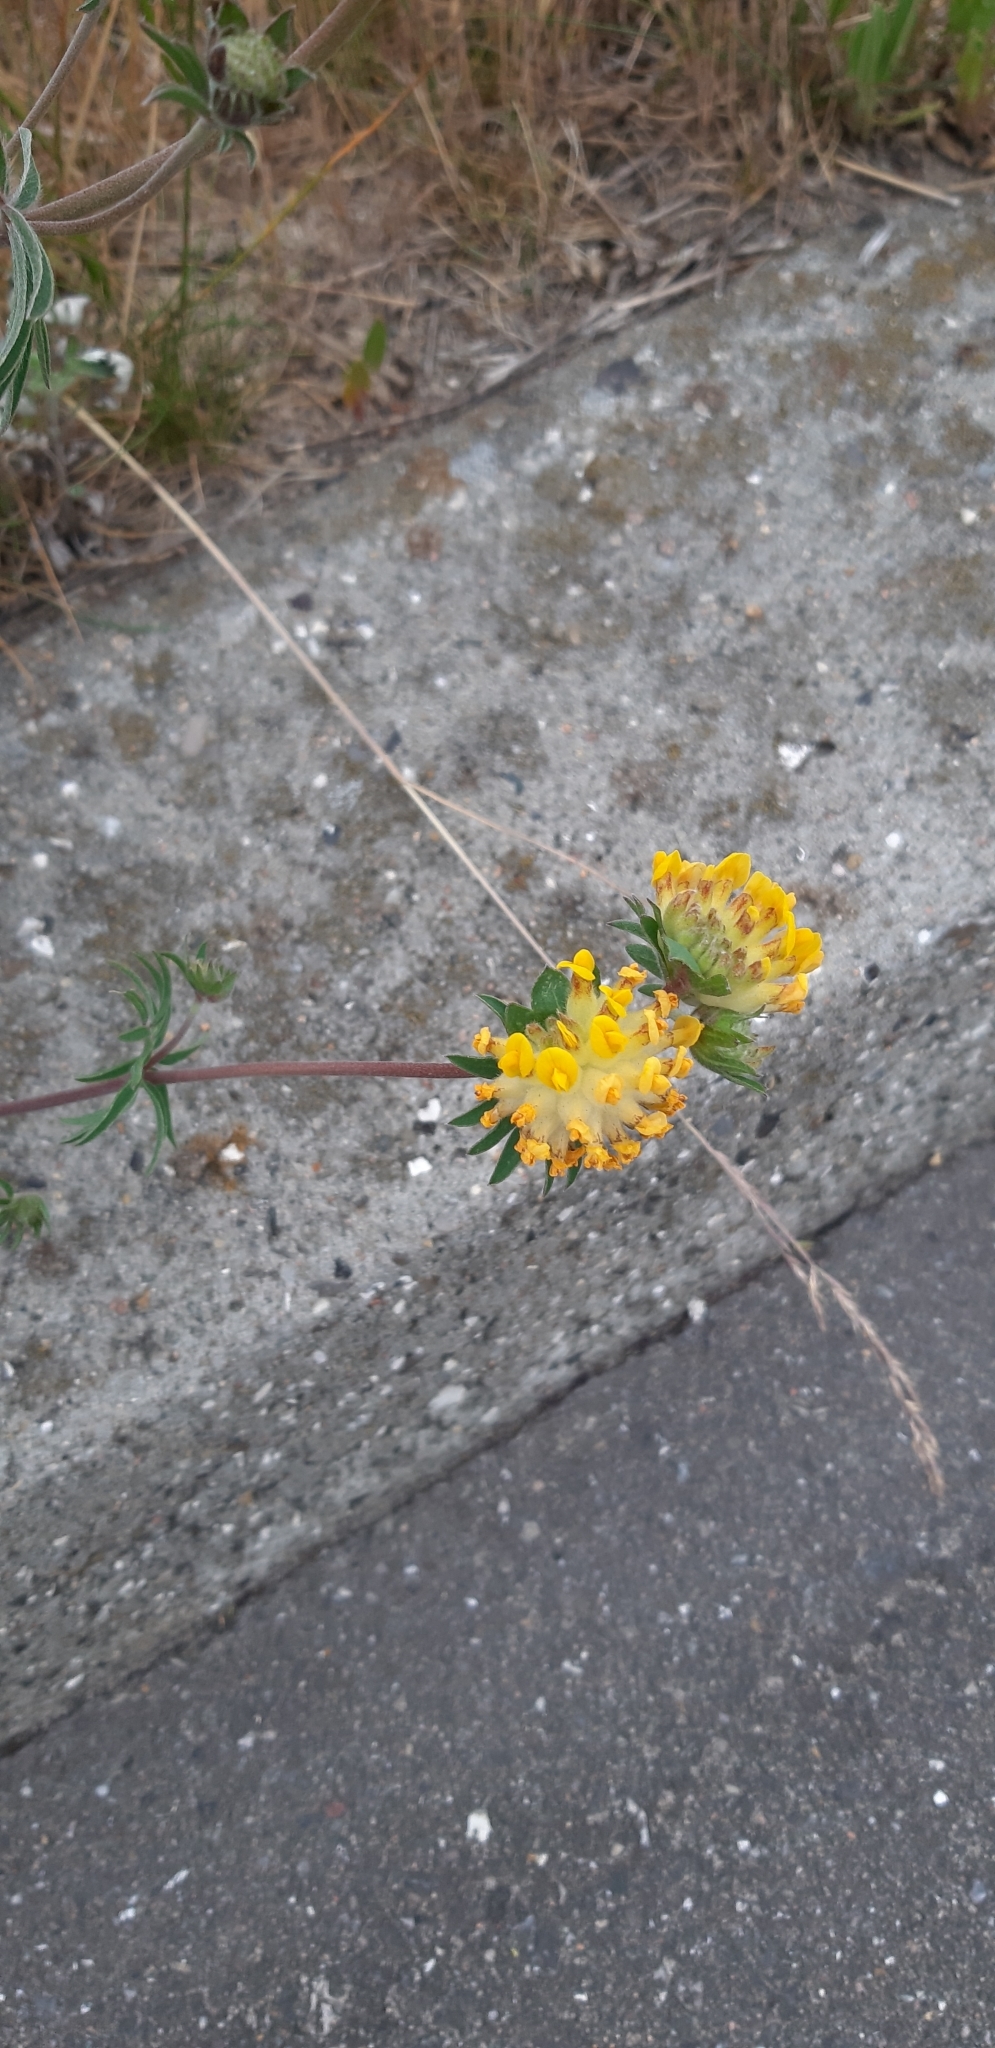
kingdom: Plantae
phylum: Tracheophyta
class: Magnoliopsida
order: Fabales
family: Fabaceae
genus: Anthyllis
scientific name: Anthyllis vulneraria
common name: Kidney vetch
